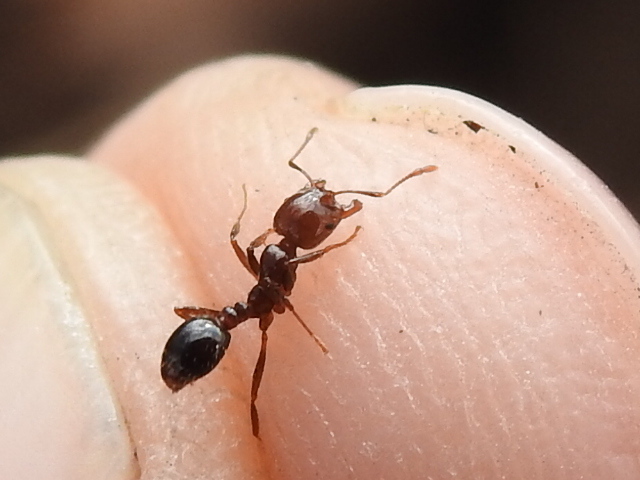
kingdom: Animalia
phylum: Arthropoda
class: Insecta
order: Hymenoptera
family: Formicidae
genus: Solenopsis
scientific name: Solenopsis invicta
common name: Red imported fire ant
